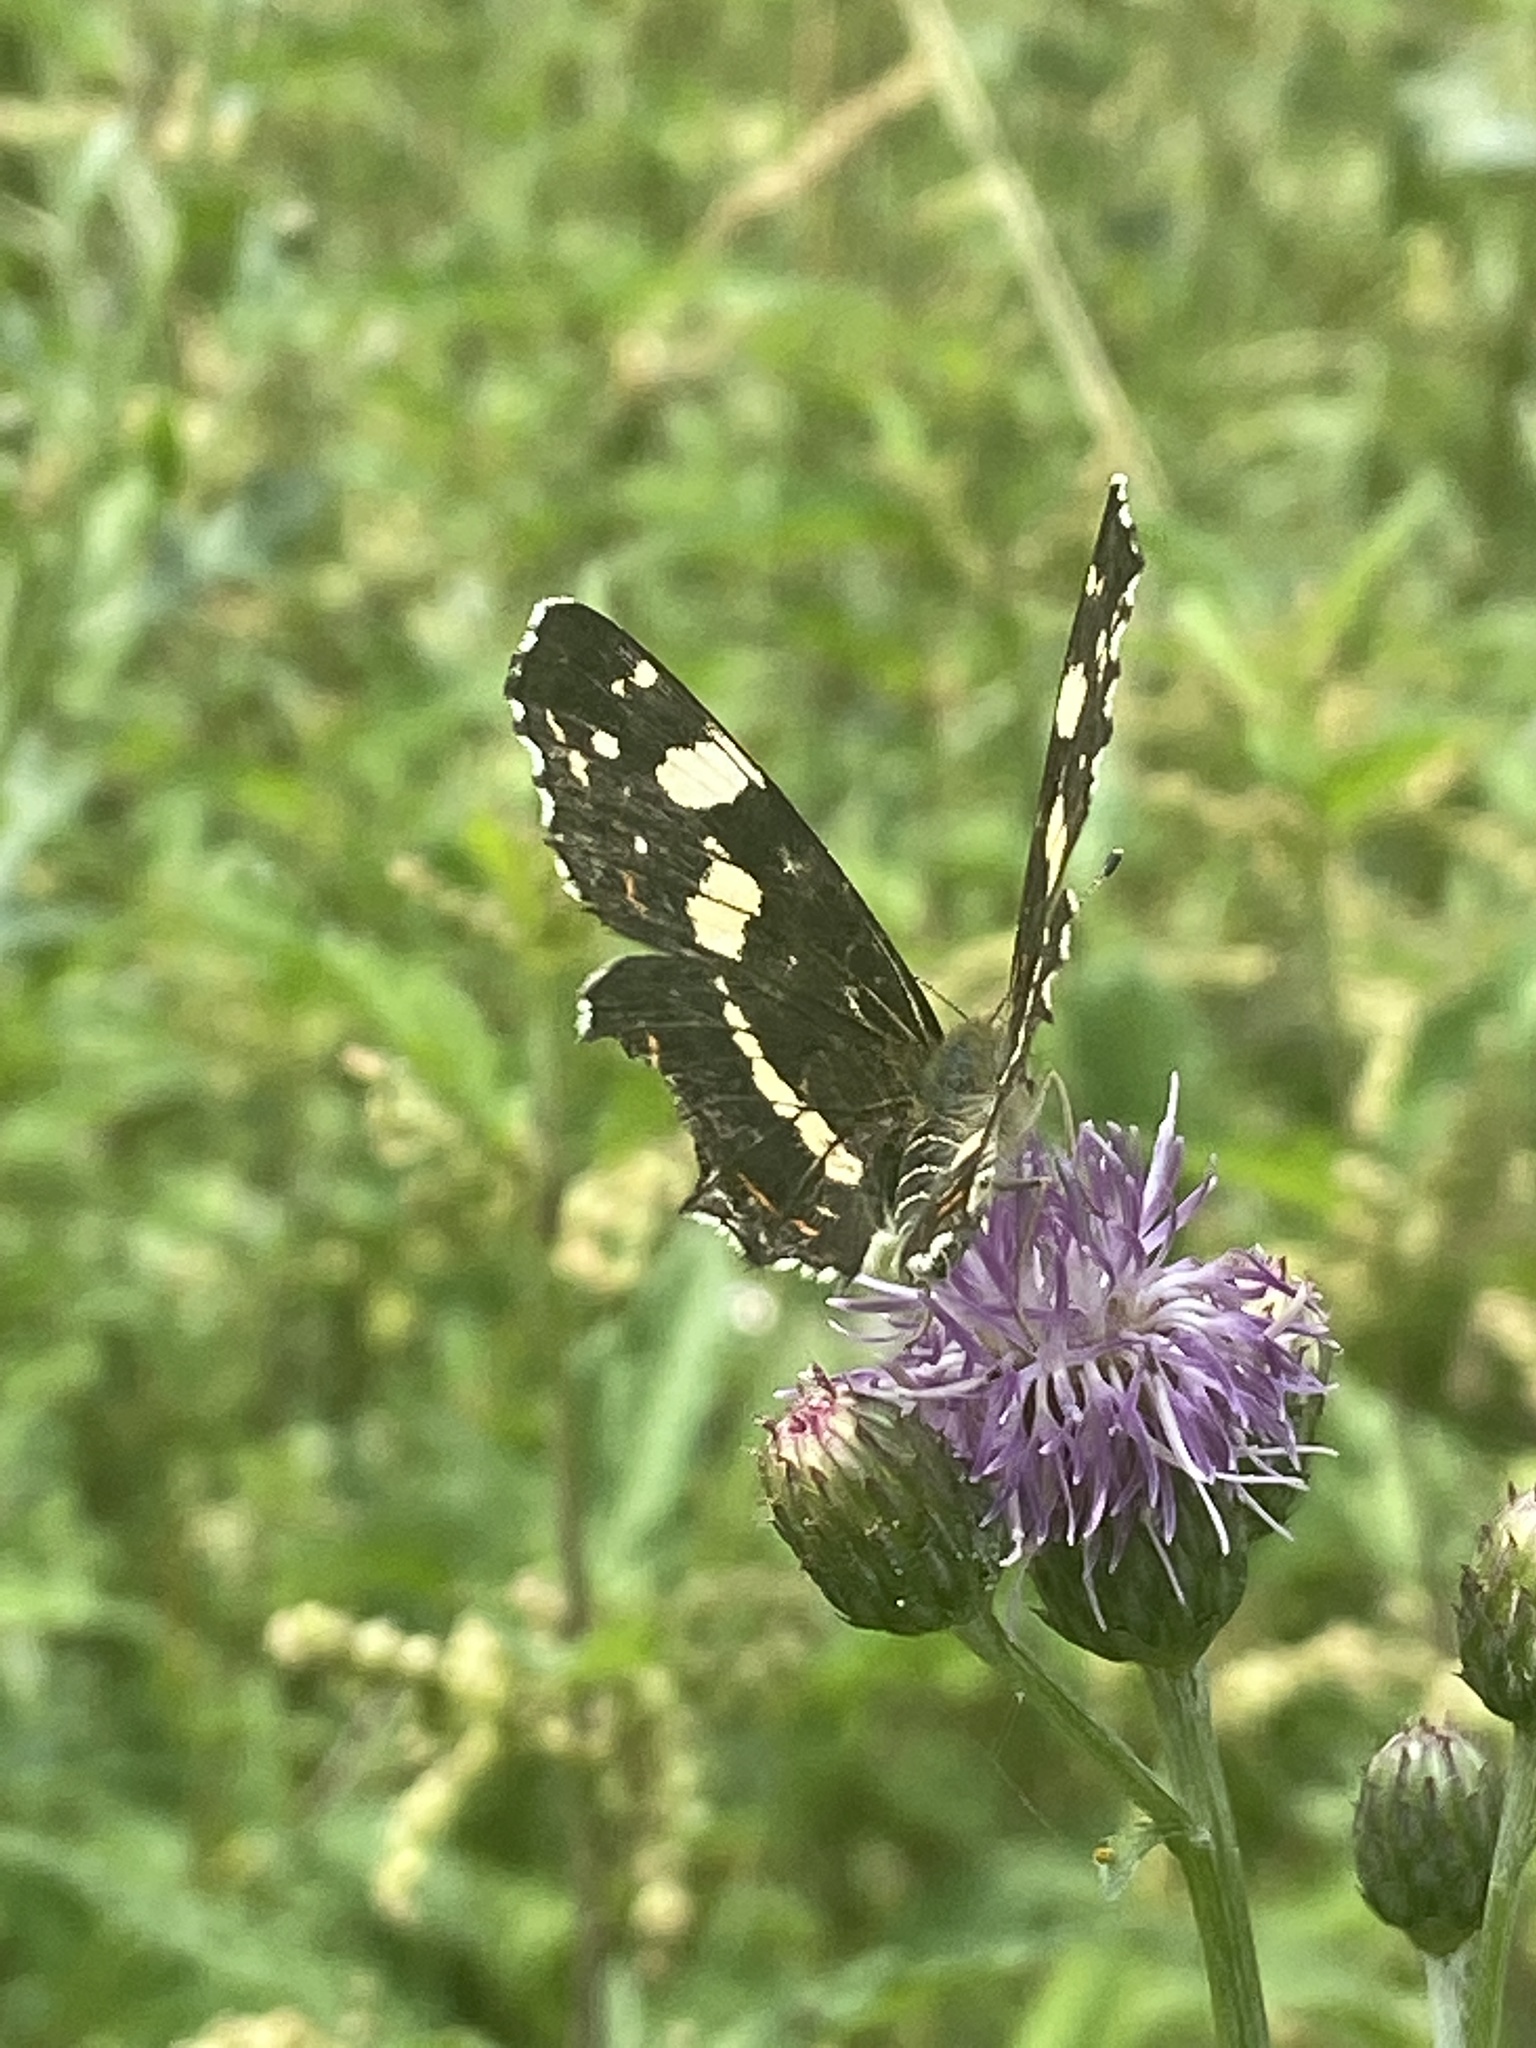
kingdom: Animalia
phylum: Arthropoda
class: Insecta
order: Lepidoptera
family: Nymphalidae
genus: Araschnia
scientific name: Araschnia levana
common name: Map butterfly
